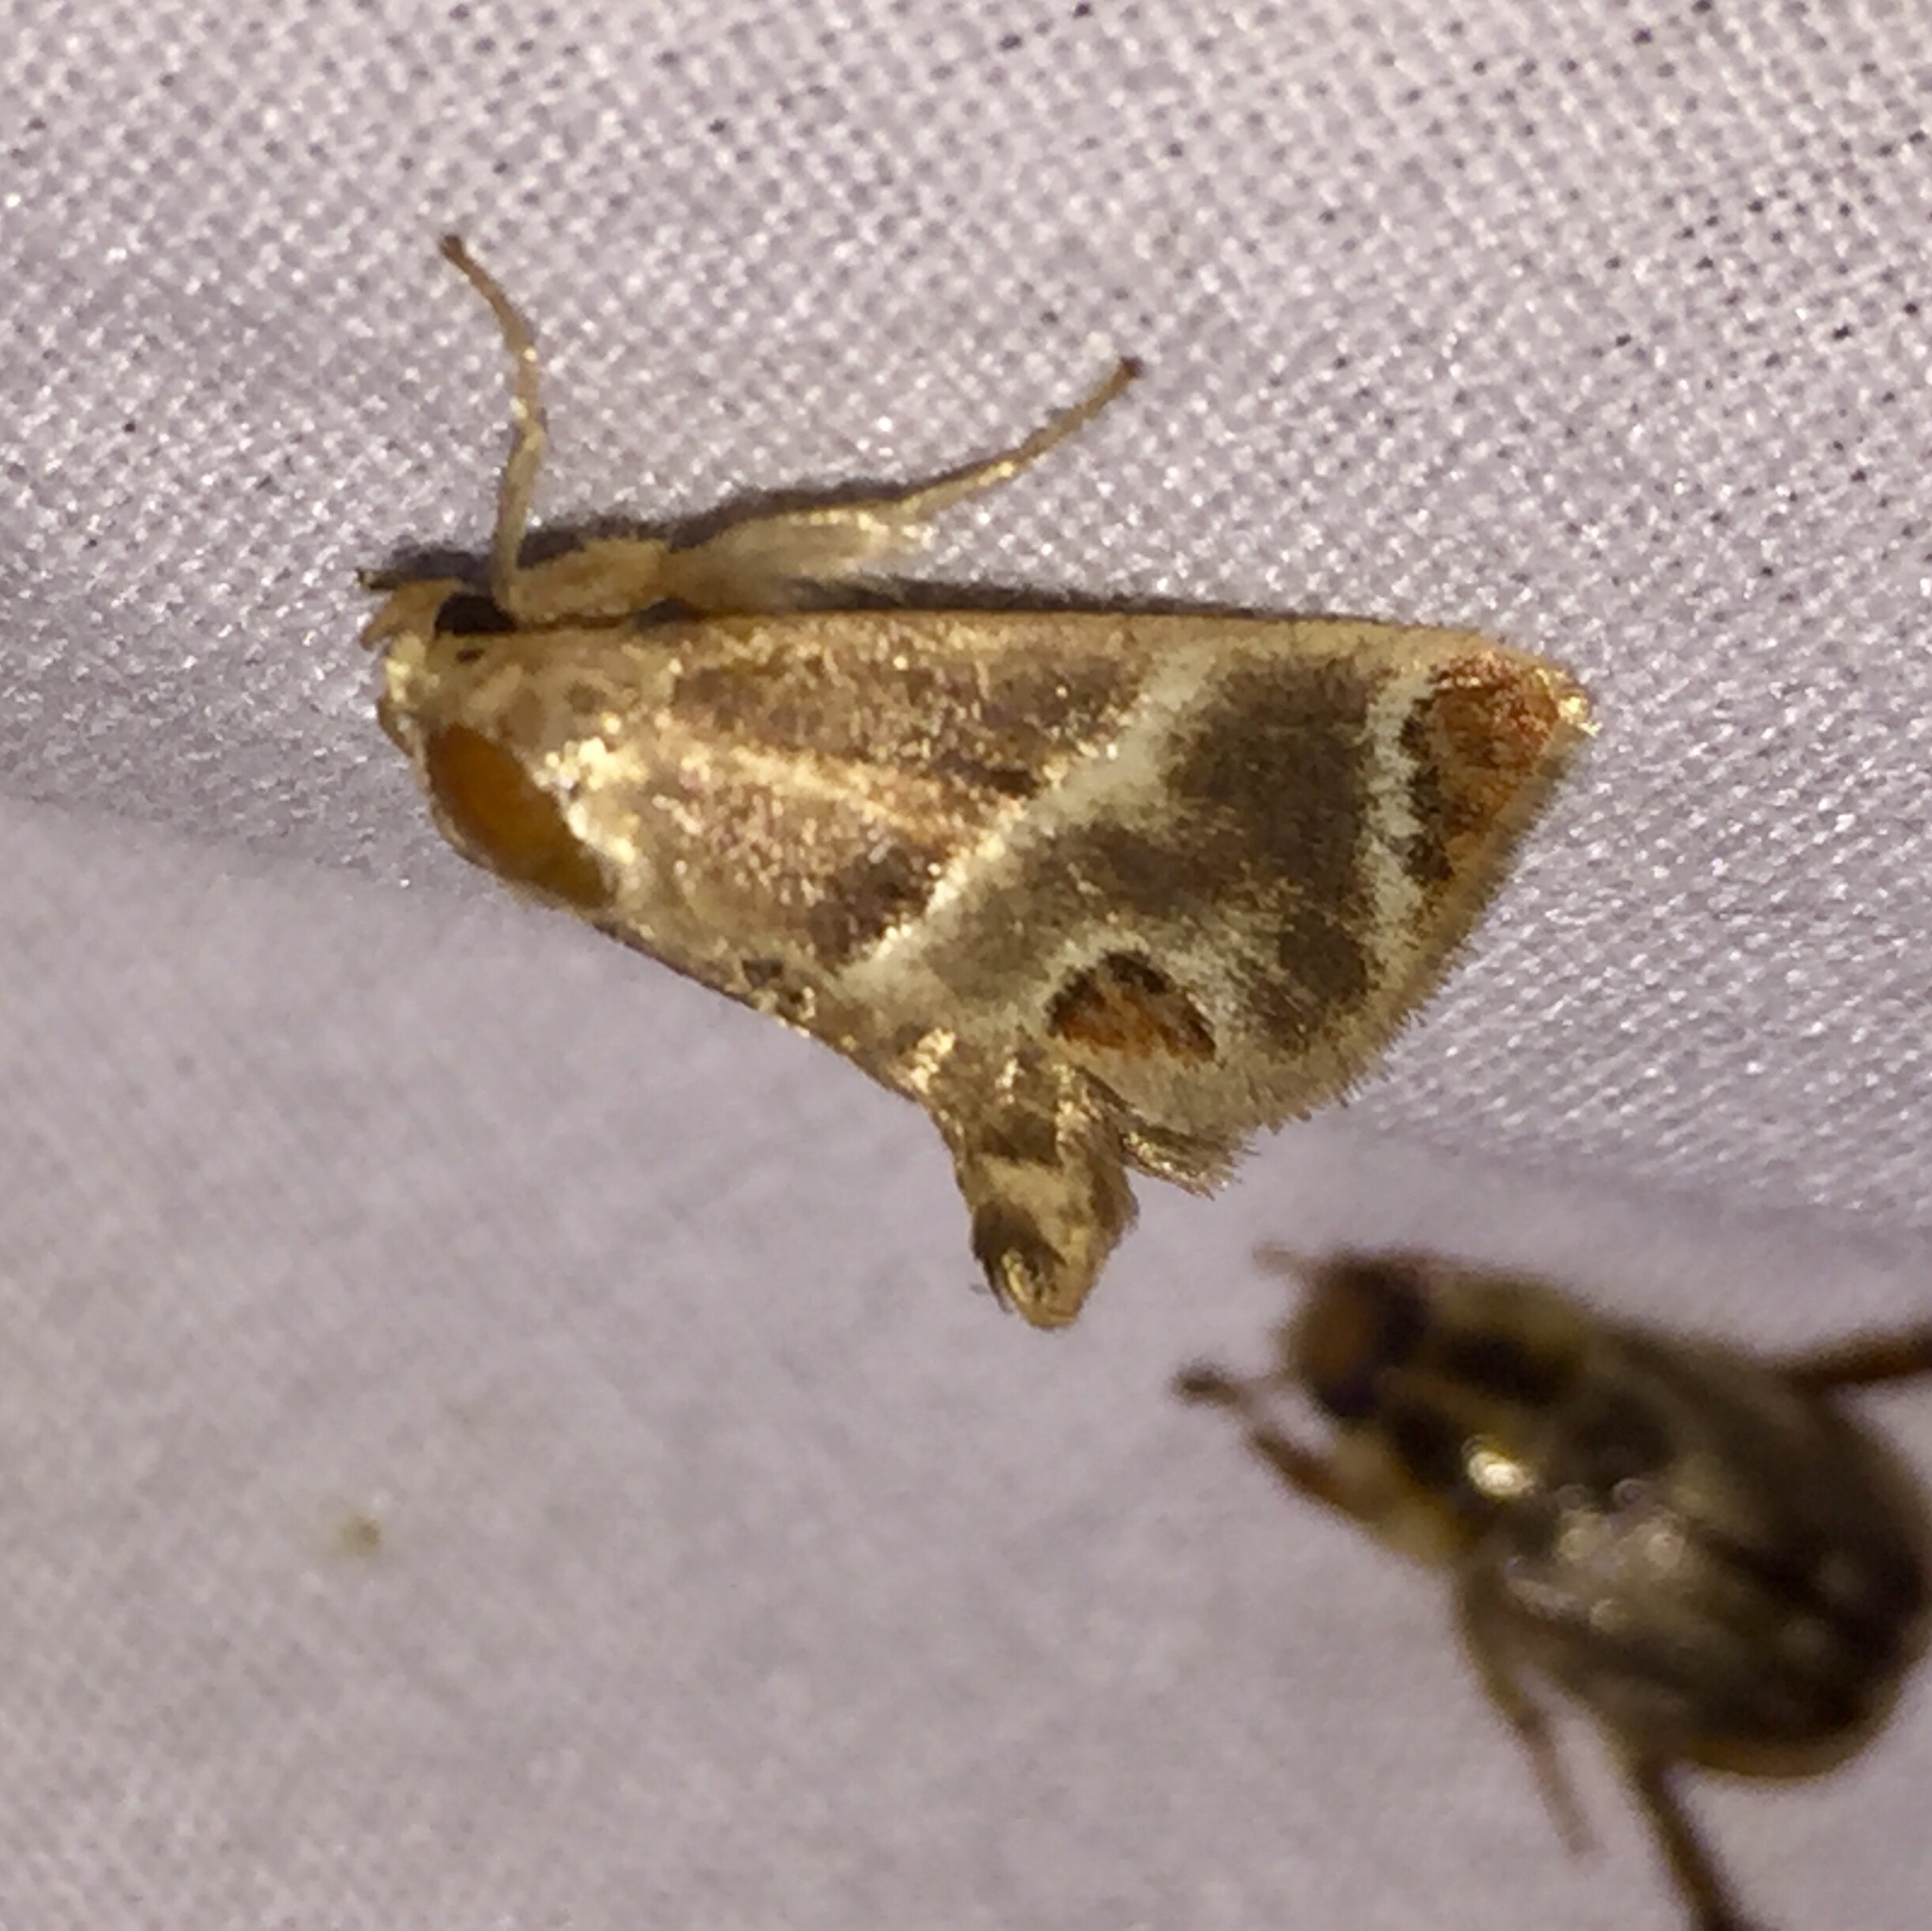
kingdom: Animalia
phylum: Arthropoda
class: Insecta
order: Lepidoptera
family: Limacodidae
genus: Apoda
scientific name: Apoda biguttata
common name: Shagreened slug moth
